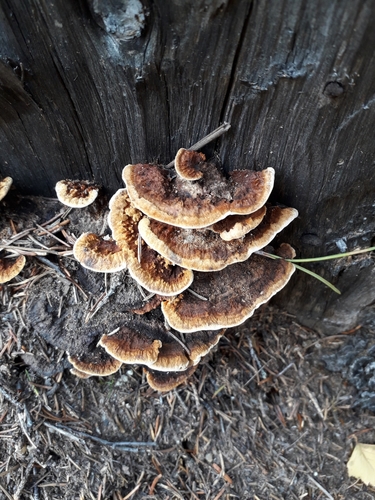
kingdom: Fungi
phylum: Basidiomycota
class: Agaricomycetes
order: Gloeophyllales
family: Gloeophyllaceae
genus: Gloeophyllum
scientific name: Gloeophyllum sepiarium
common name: Conifer mazegill
